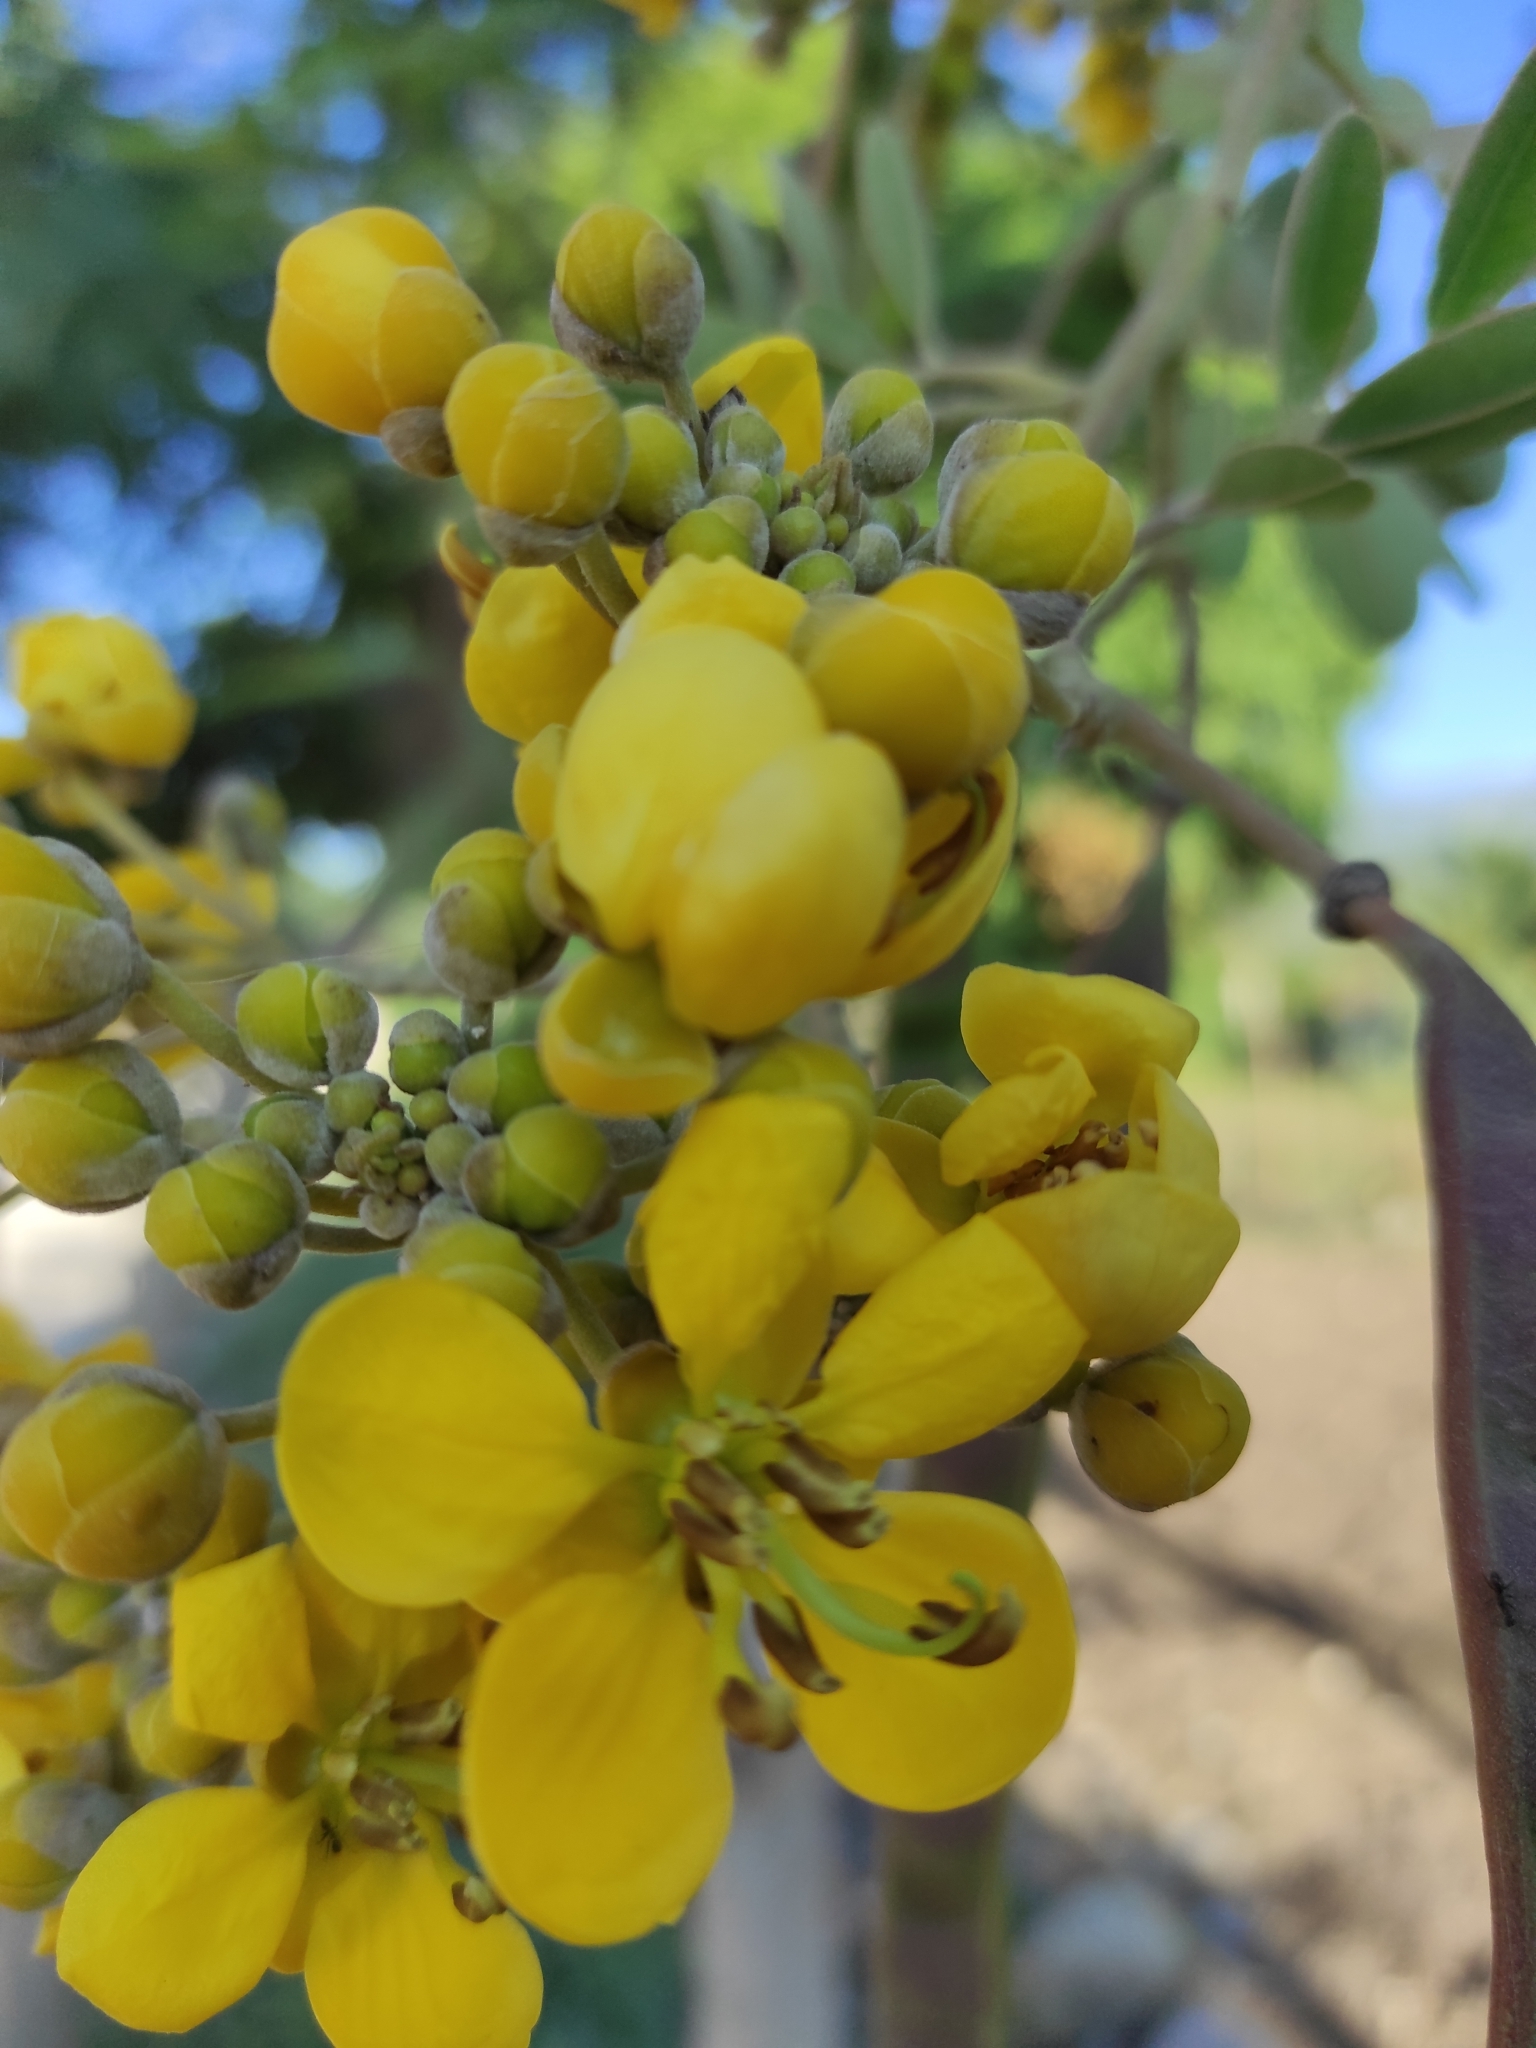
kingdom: Plantae
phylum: Tracheophyta
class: Magnoliopsida
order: Fabales
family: Fabaceae
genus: Senna
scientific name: Senna siamea
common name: Siamese cassia
